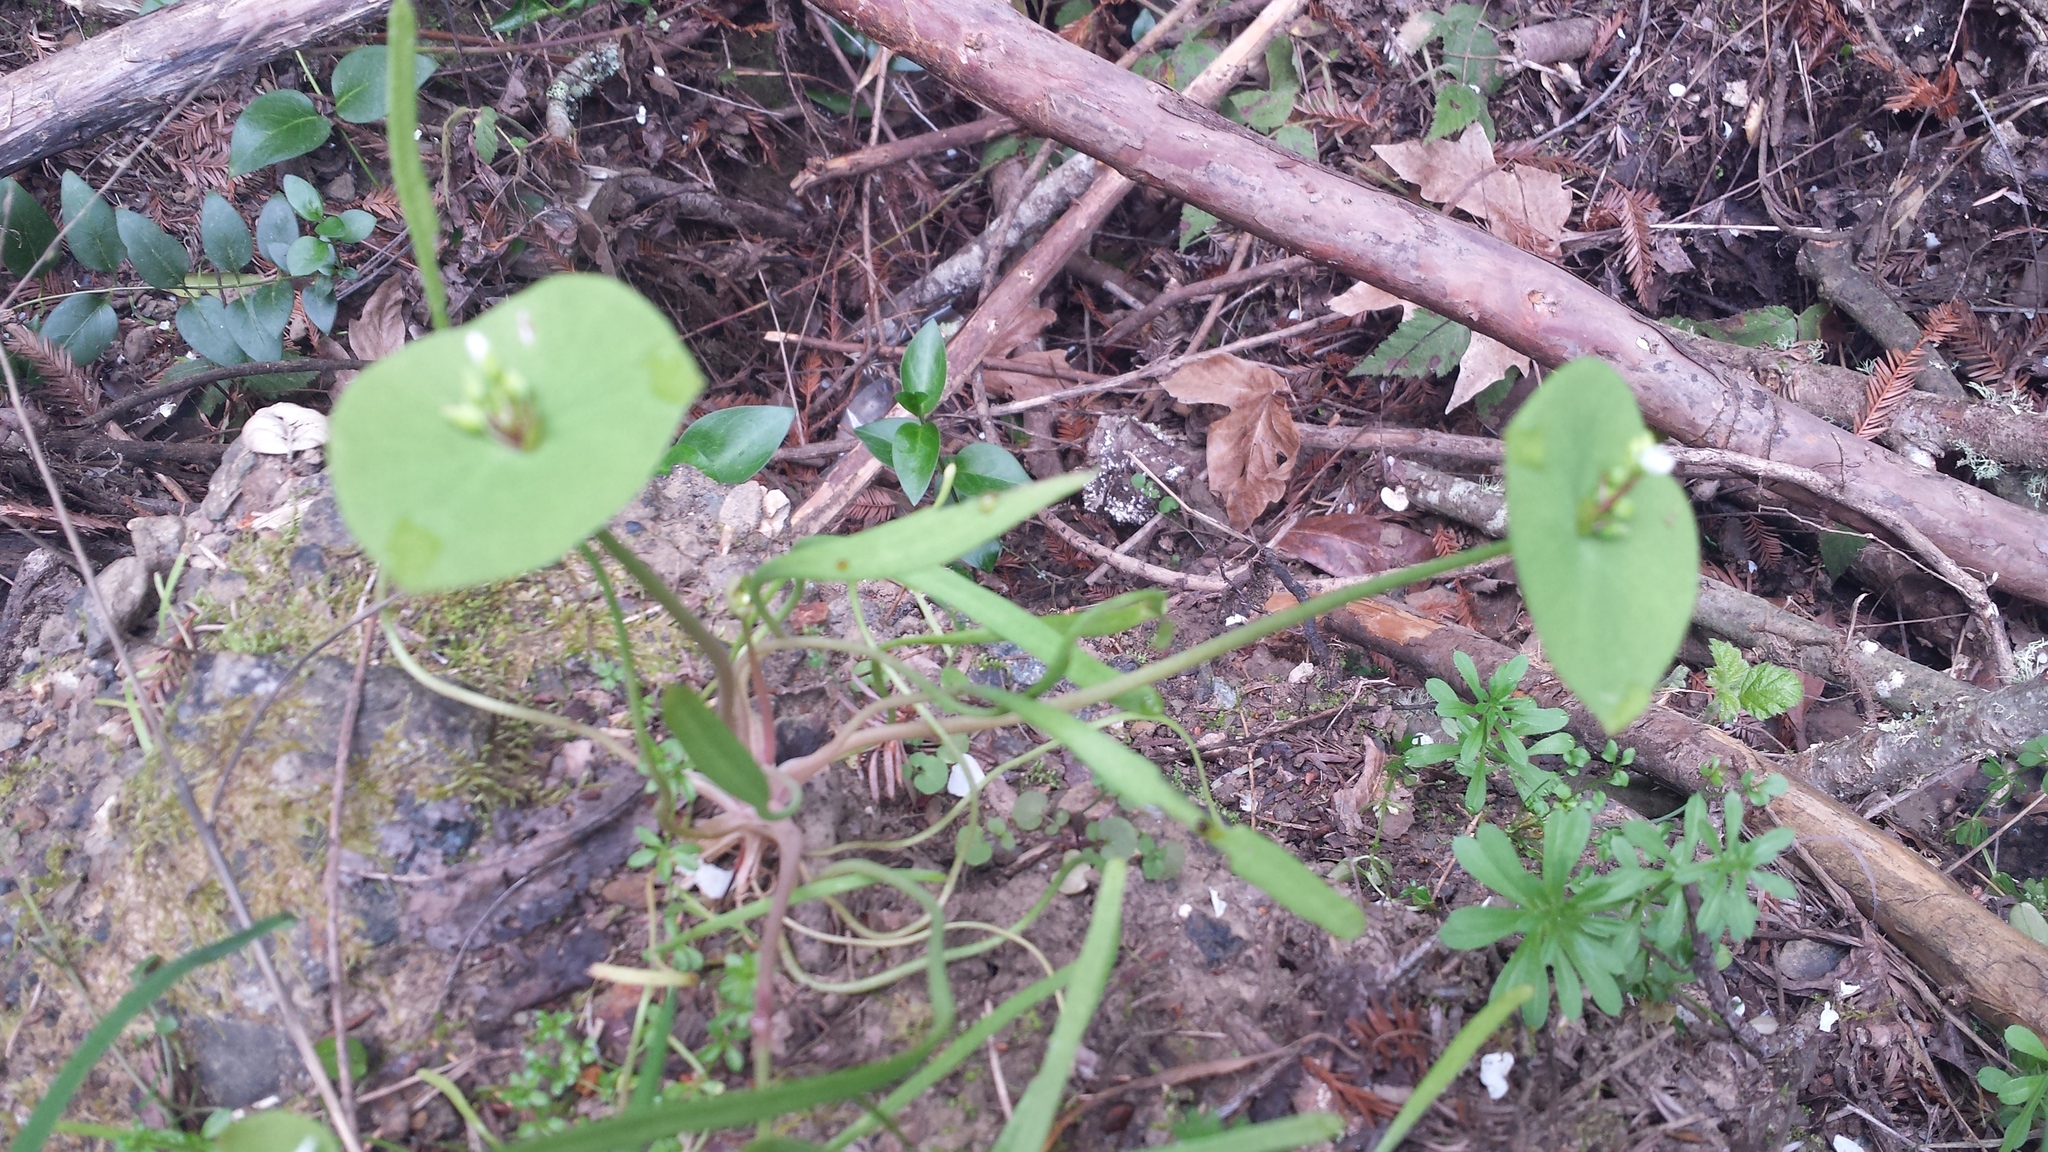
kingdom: Plantae
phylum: Tracheophyta
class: Magnoliopsida
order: Caryophyllales
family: Montiaceae
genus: Claytonia
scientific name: Claytonia perfoliata
